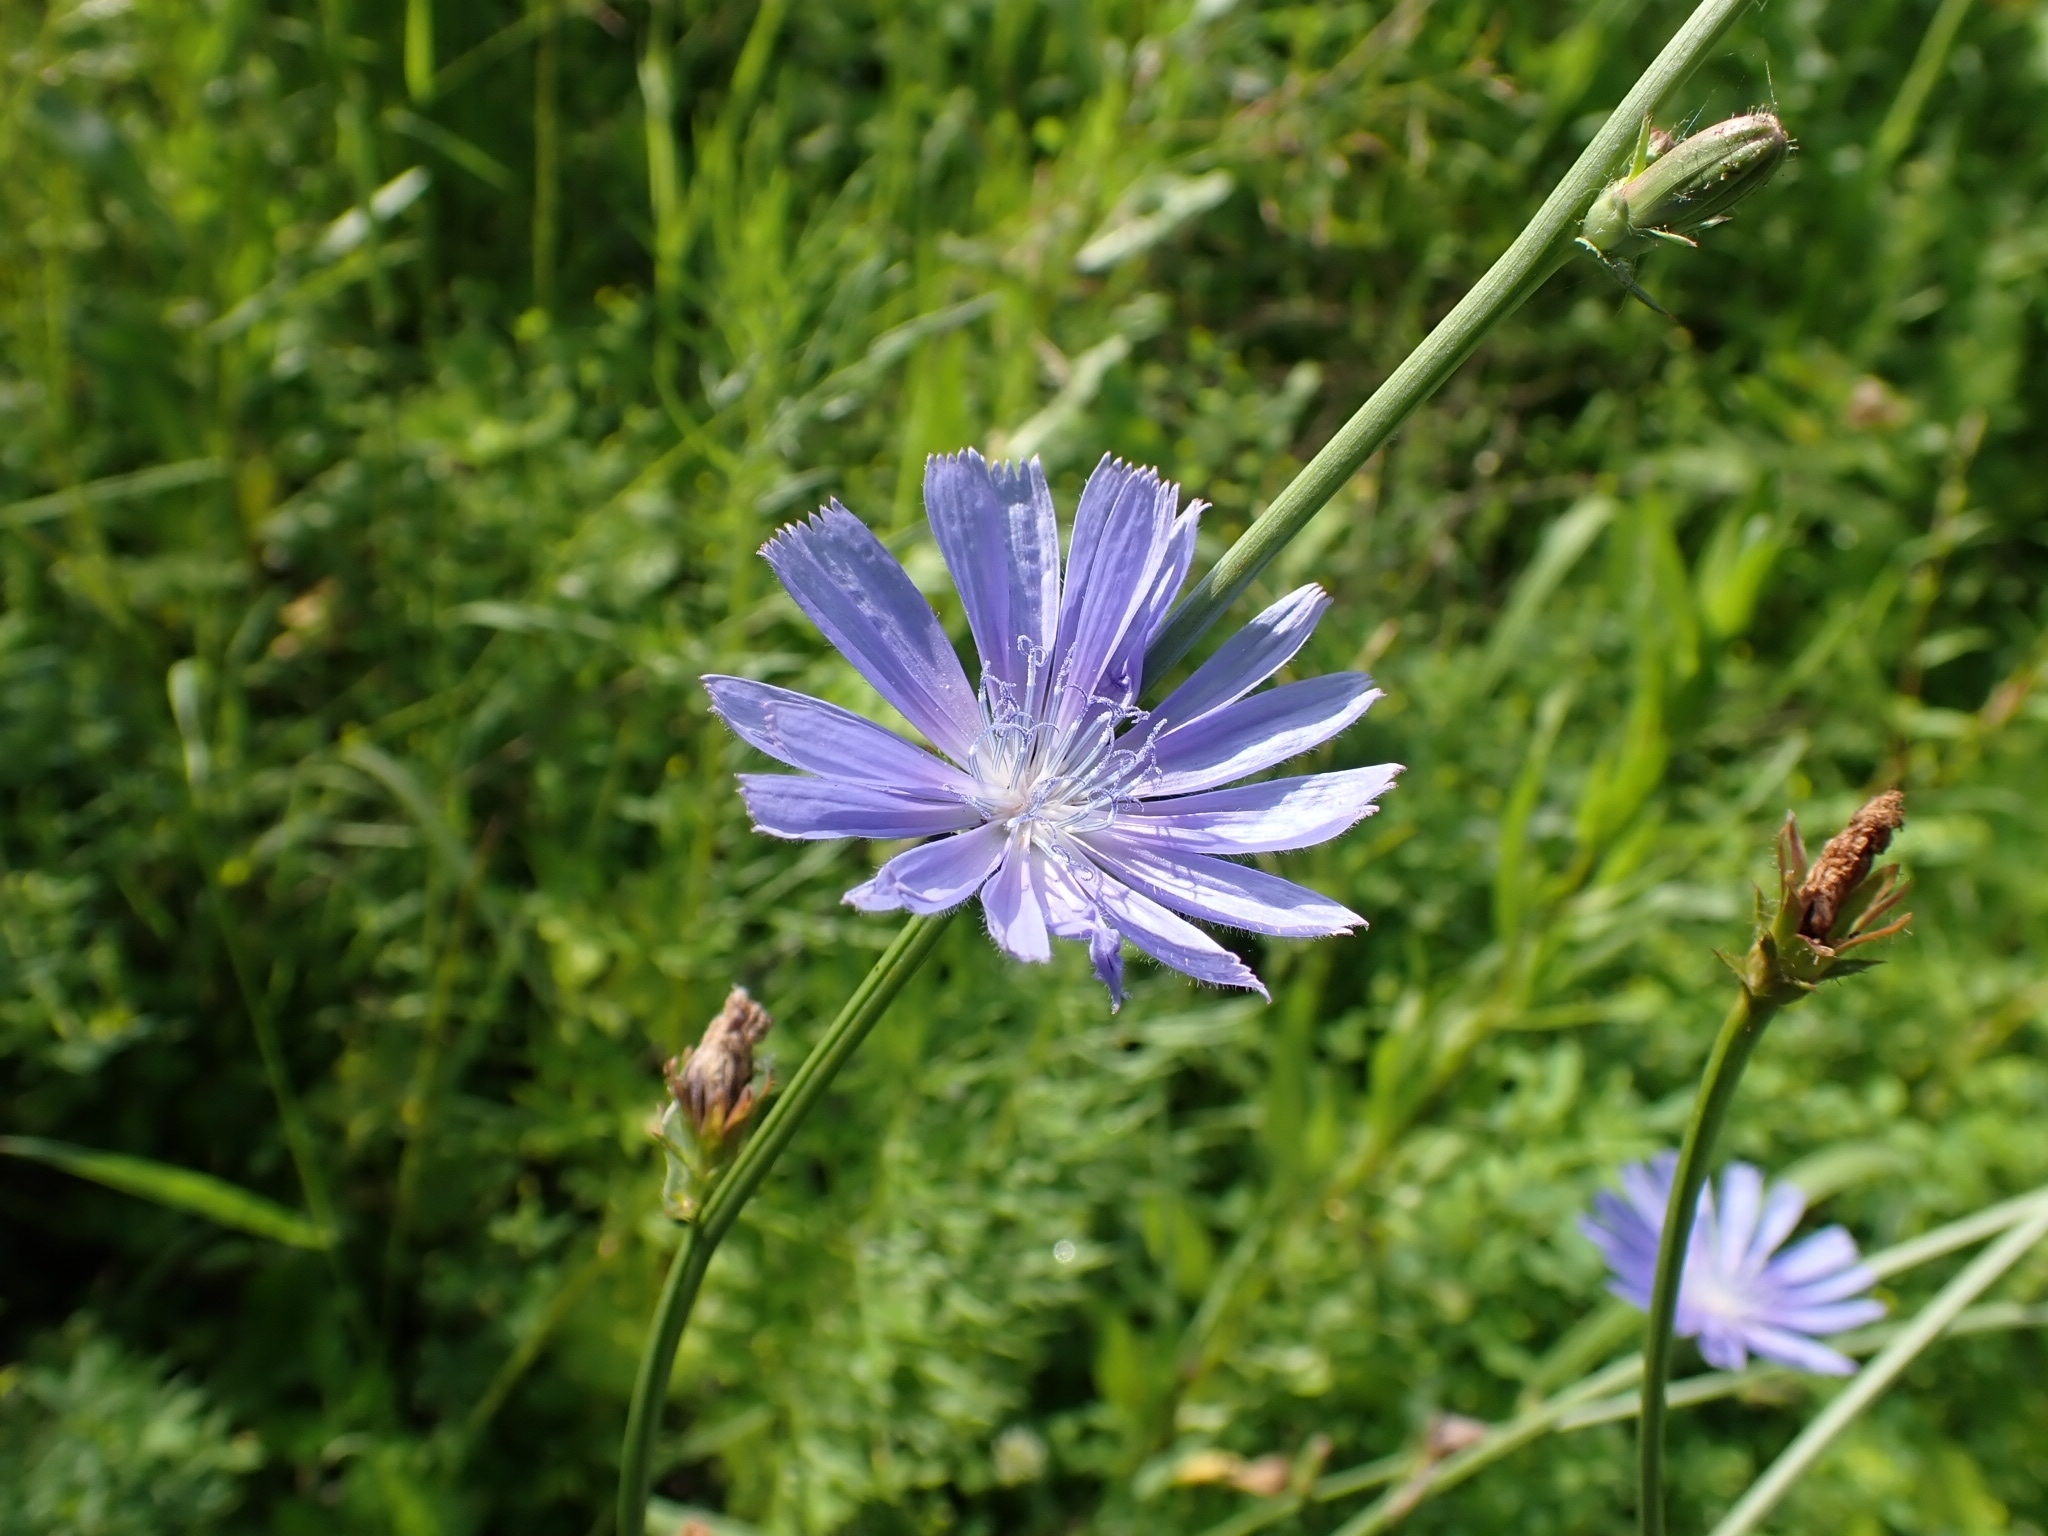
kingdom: Plantae
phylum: Tracheophyta
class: Magnoliopsida
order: Asterales
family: Asteraceae
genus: Cichorium
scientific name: Cichorium intybus
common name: Chicory
